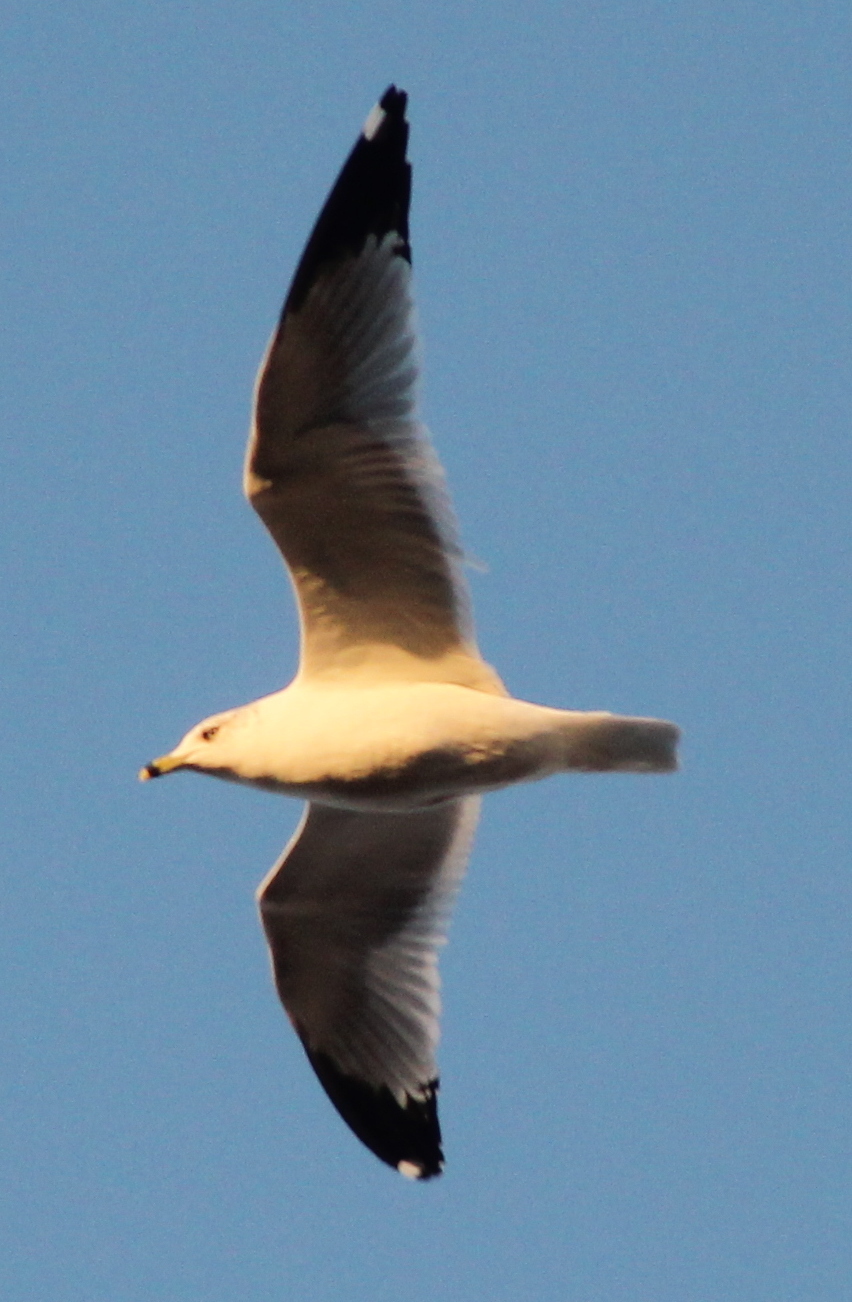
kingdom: Animalia
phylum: Chordata
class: Aves
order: Charadriiformes
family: Laridae
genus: Larus
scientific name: Larus delawarensis
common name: Ring-billed gull
